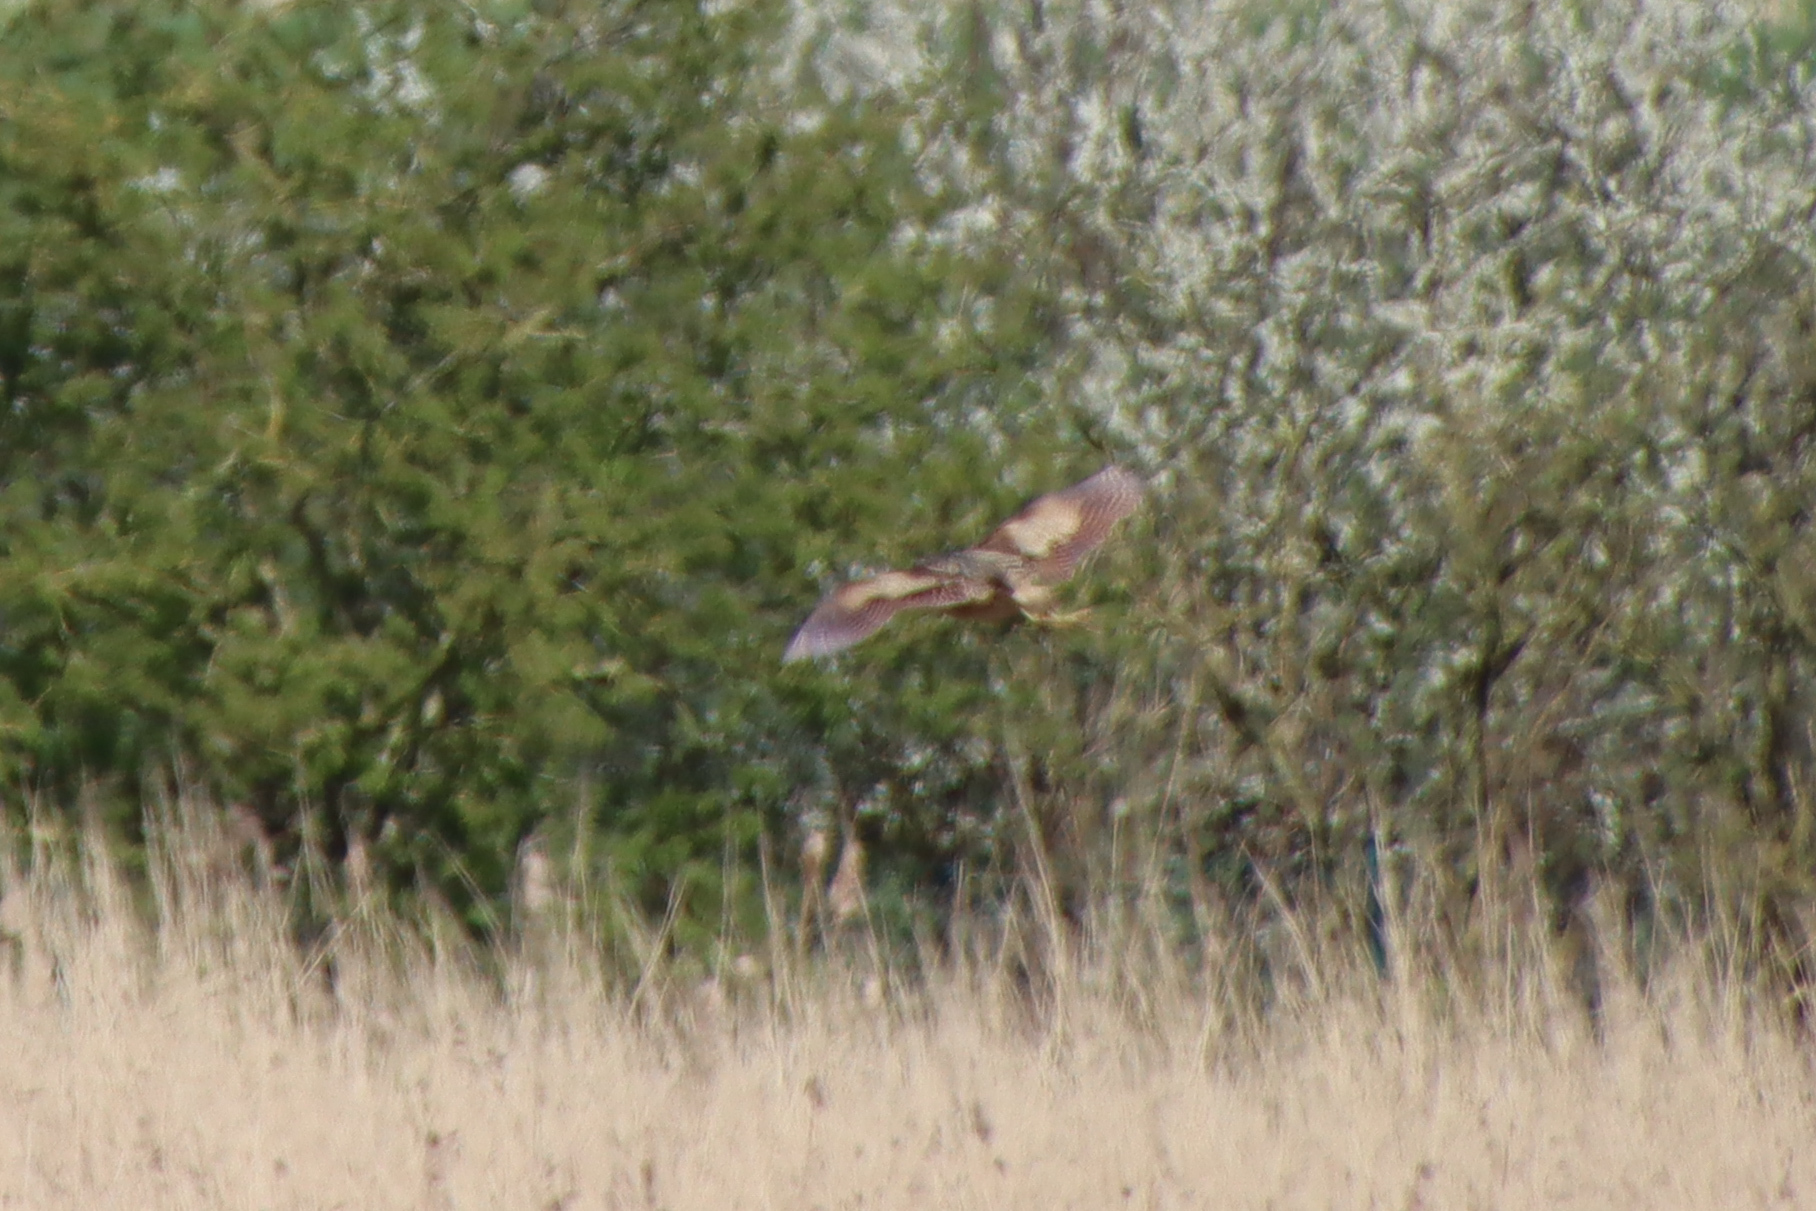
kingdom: Animalia
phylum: Chordata
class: Aves
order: Pelecaniformes
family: Ardeidae
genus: Botaurus
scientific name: Botaurus stellaris
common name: Eurasian bittern
